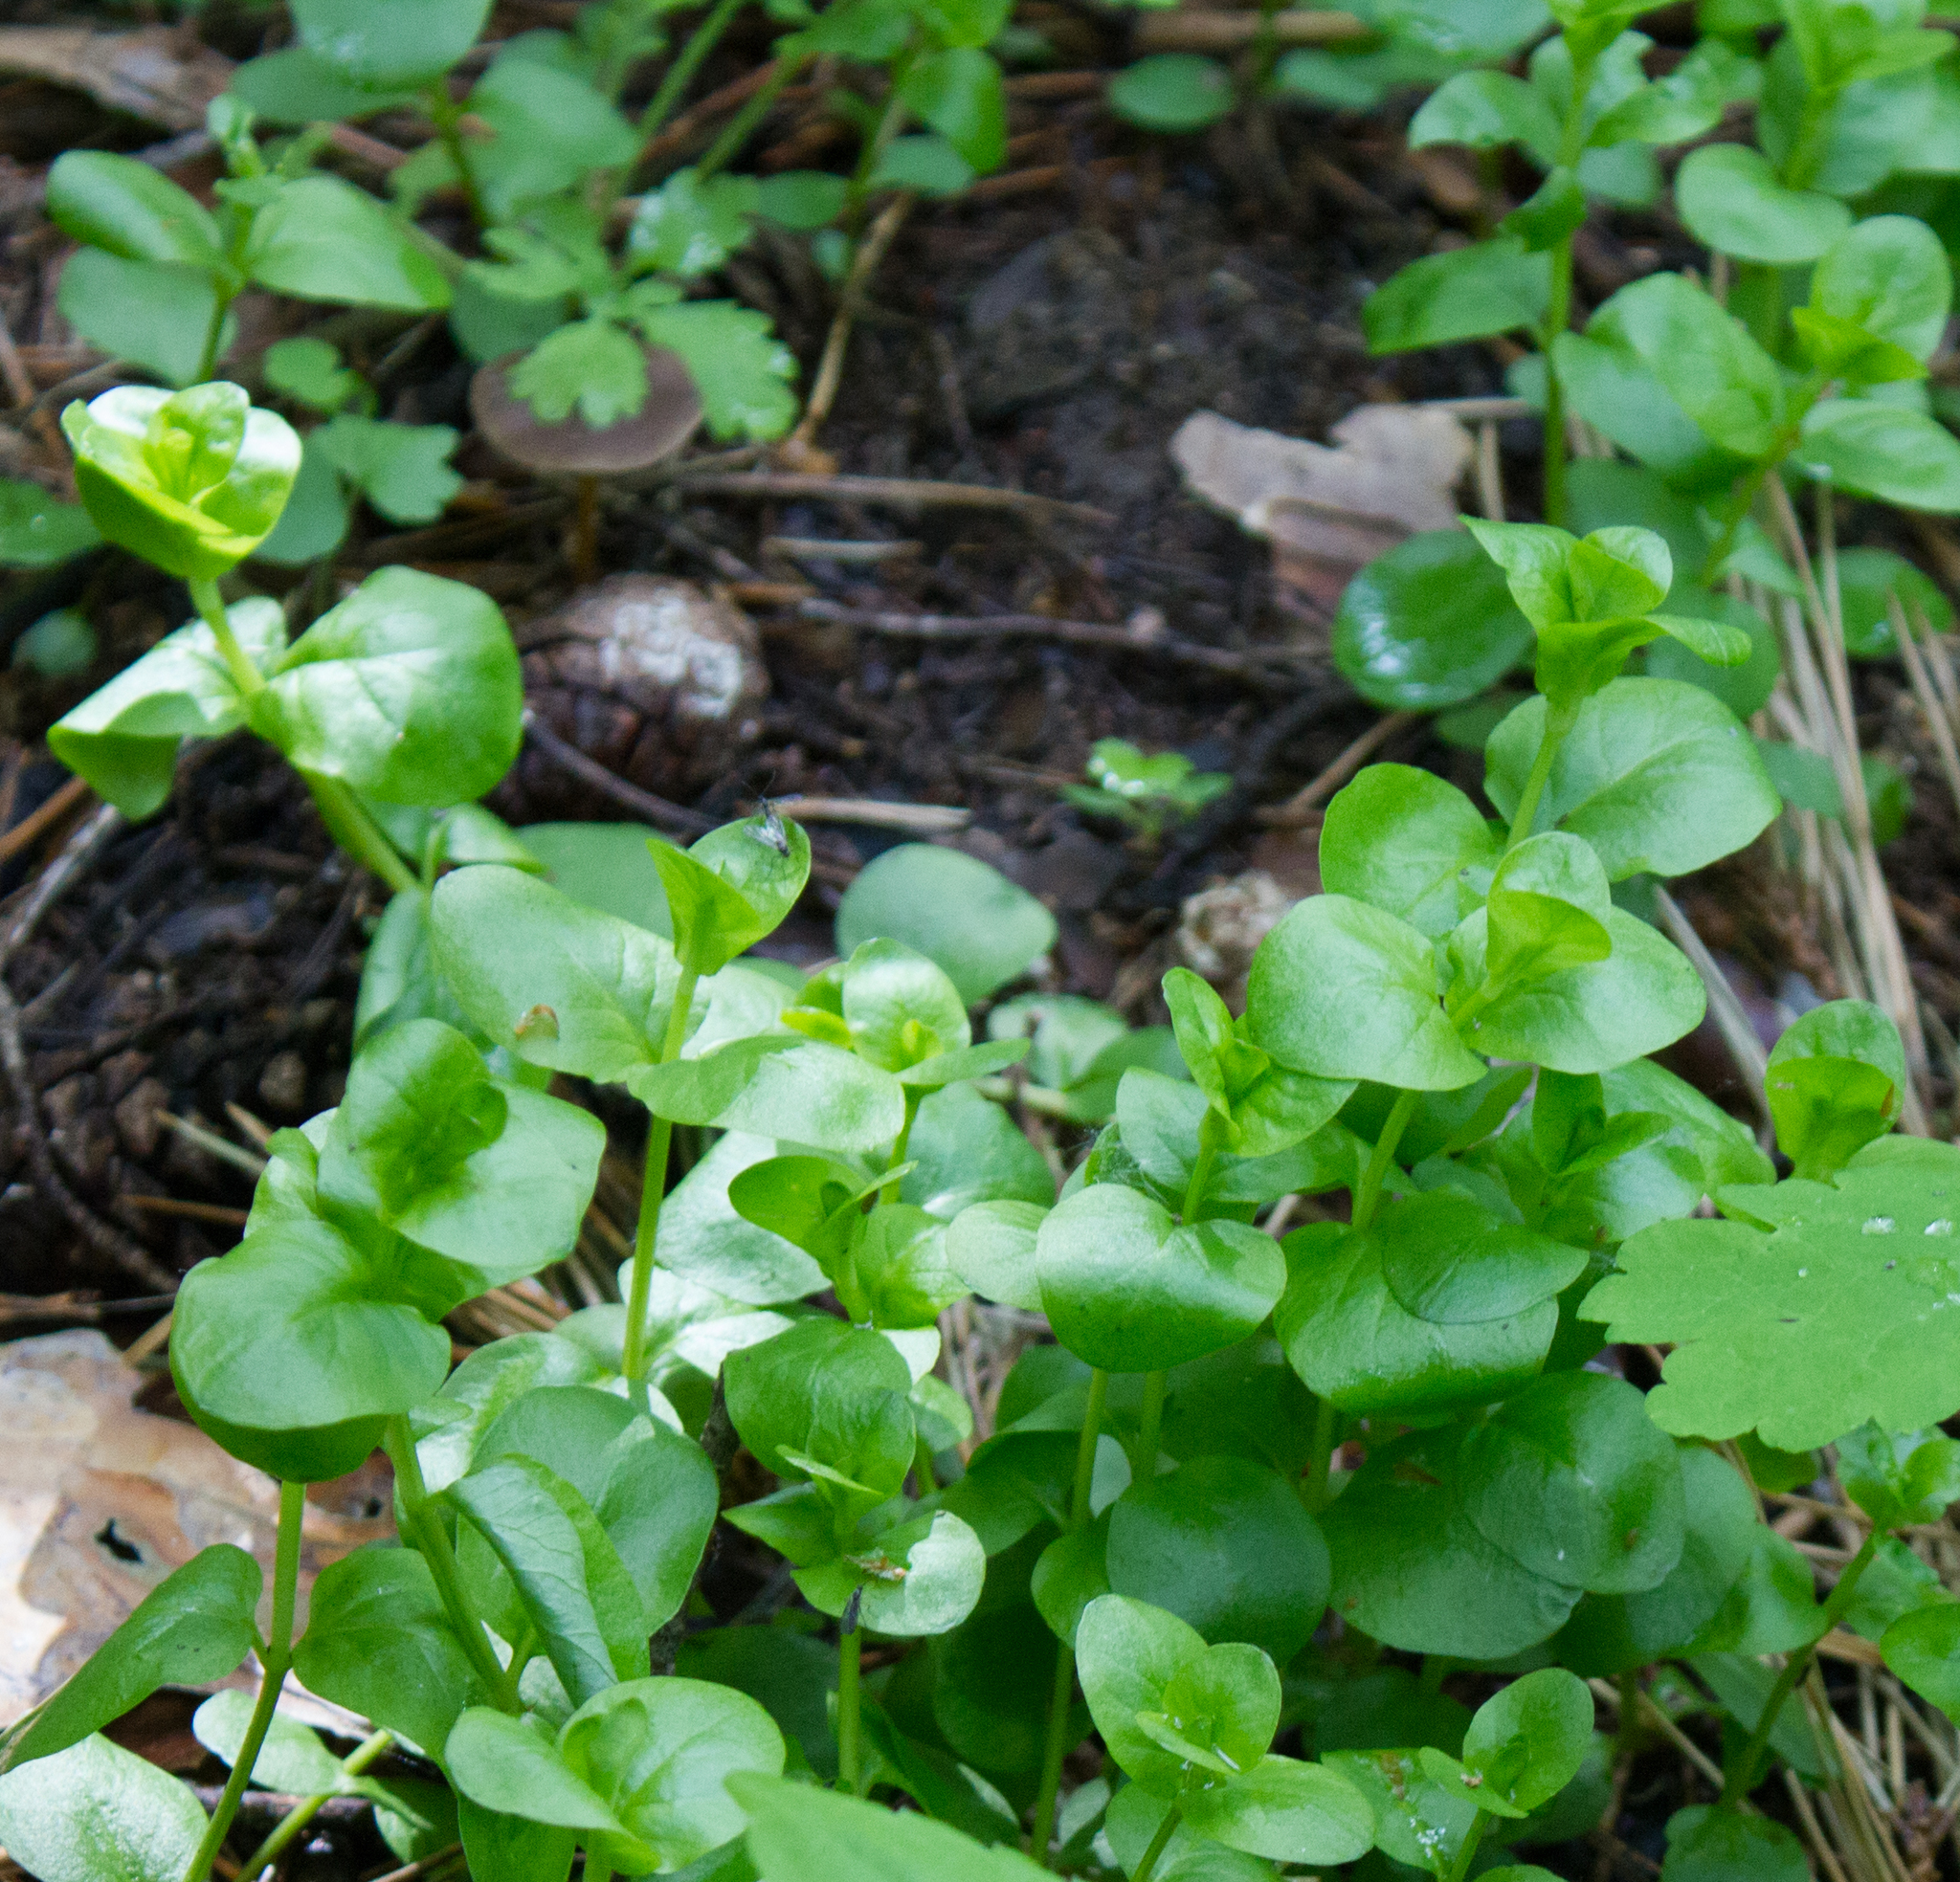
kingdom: Plantae
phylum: Tracheophyta
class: Magnoliopsida
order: Ericales
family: Primulaceae
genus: Lysimachia
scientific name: Lysimachia nummularia
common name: Moneywort
